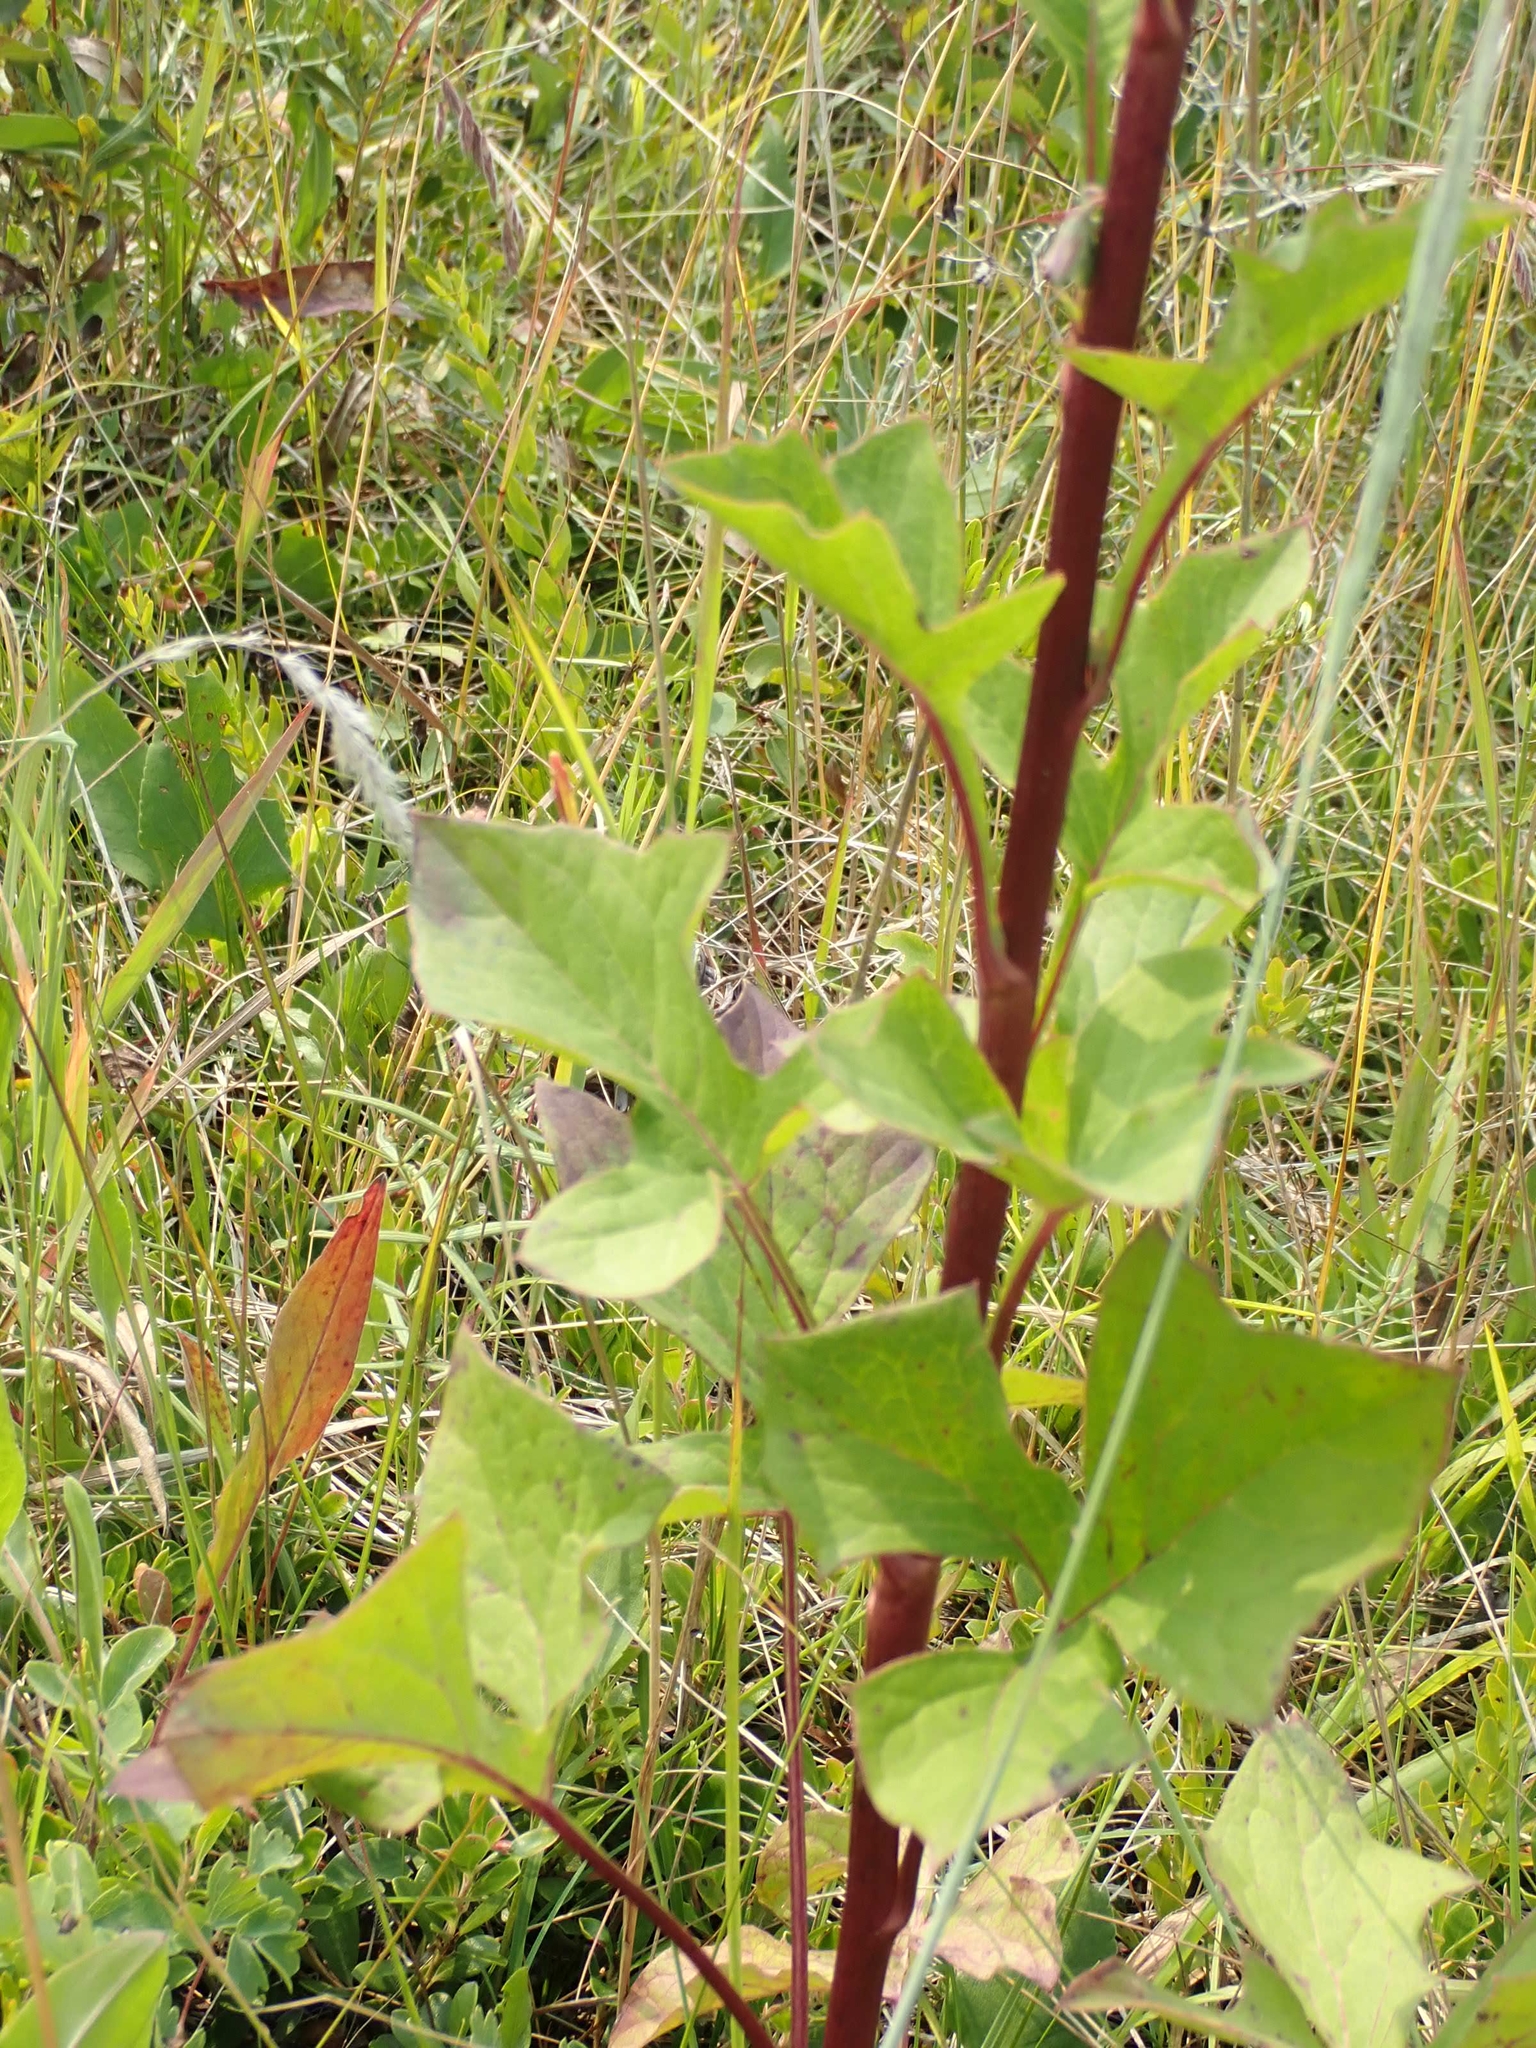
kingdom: Plantae
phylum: Tracheophyta
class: Magnoliopsida
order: Asterales
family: Asteraceae
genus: Nabalus
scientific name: Nabalus albus
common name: White rattlesnakeroot
